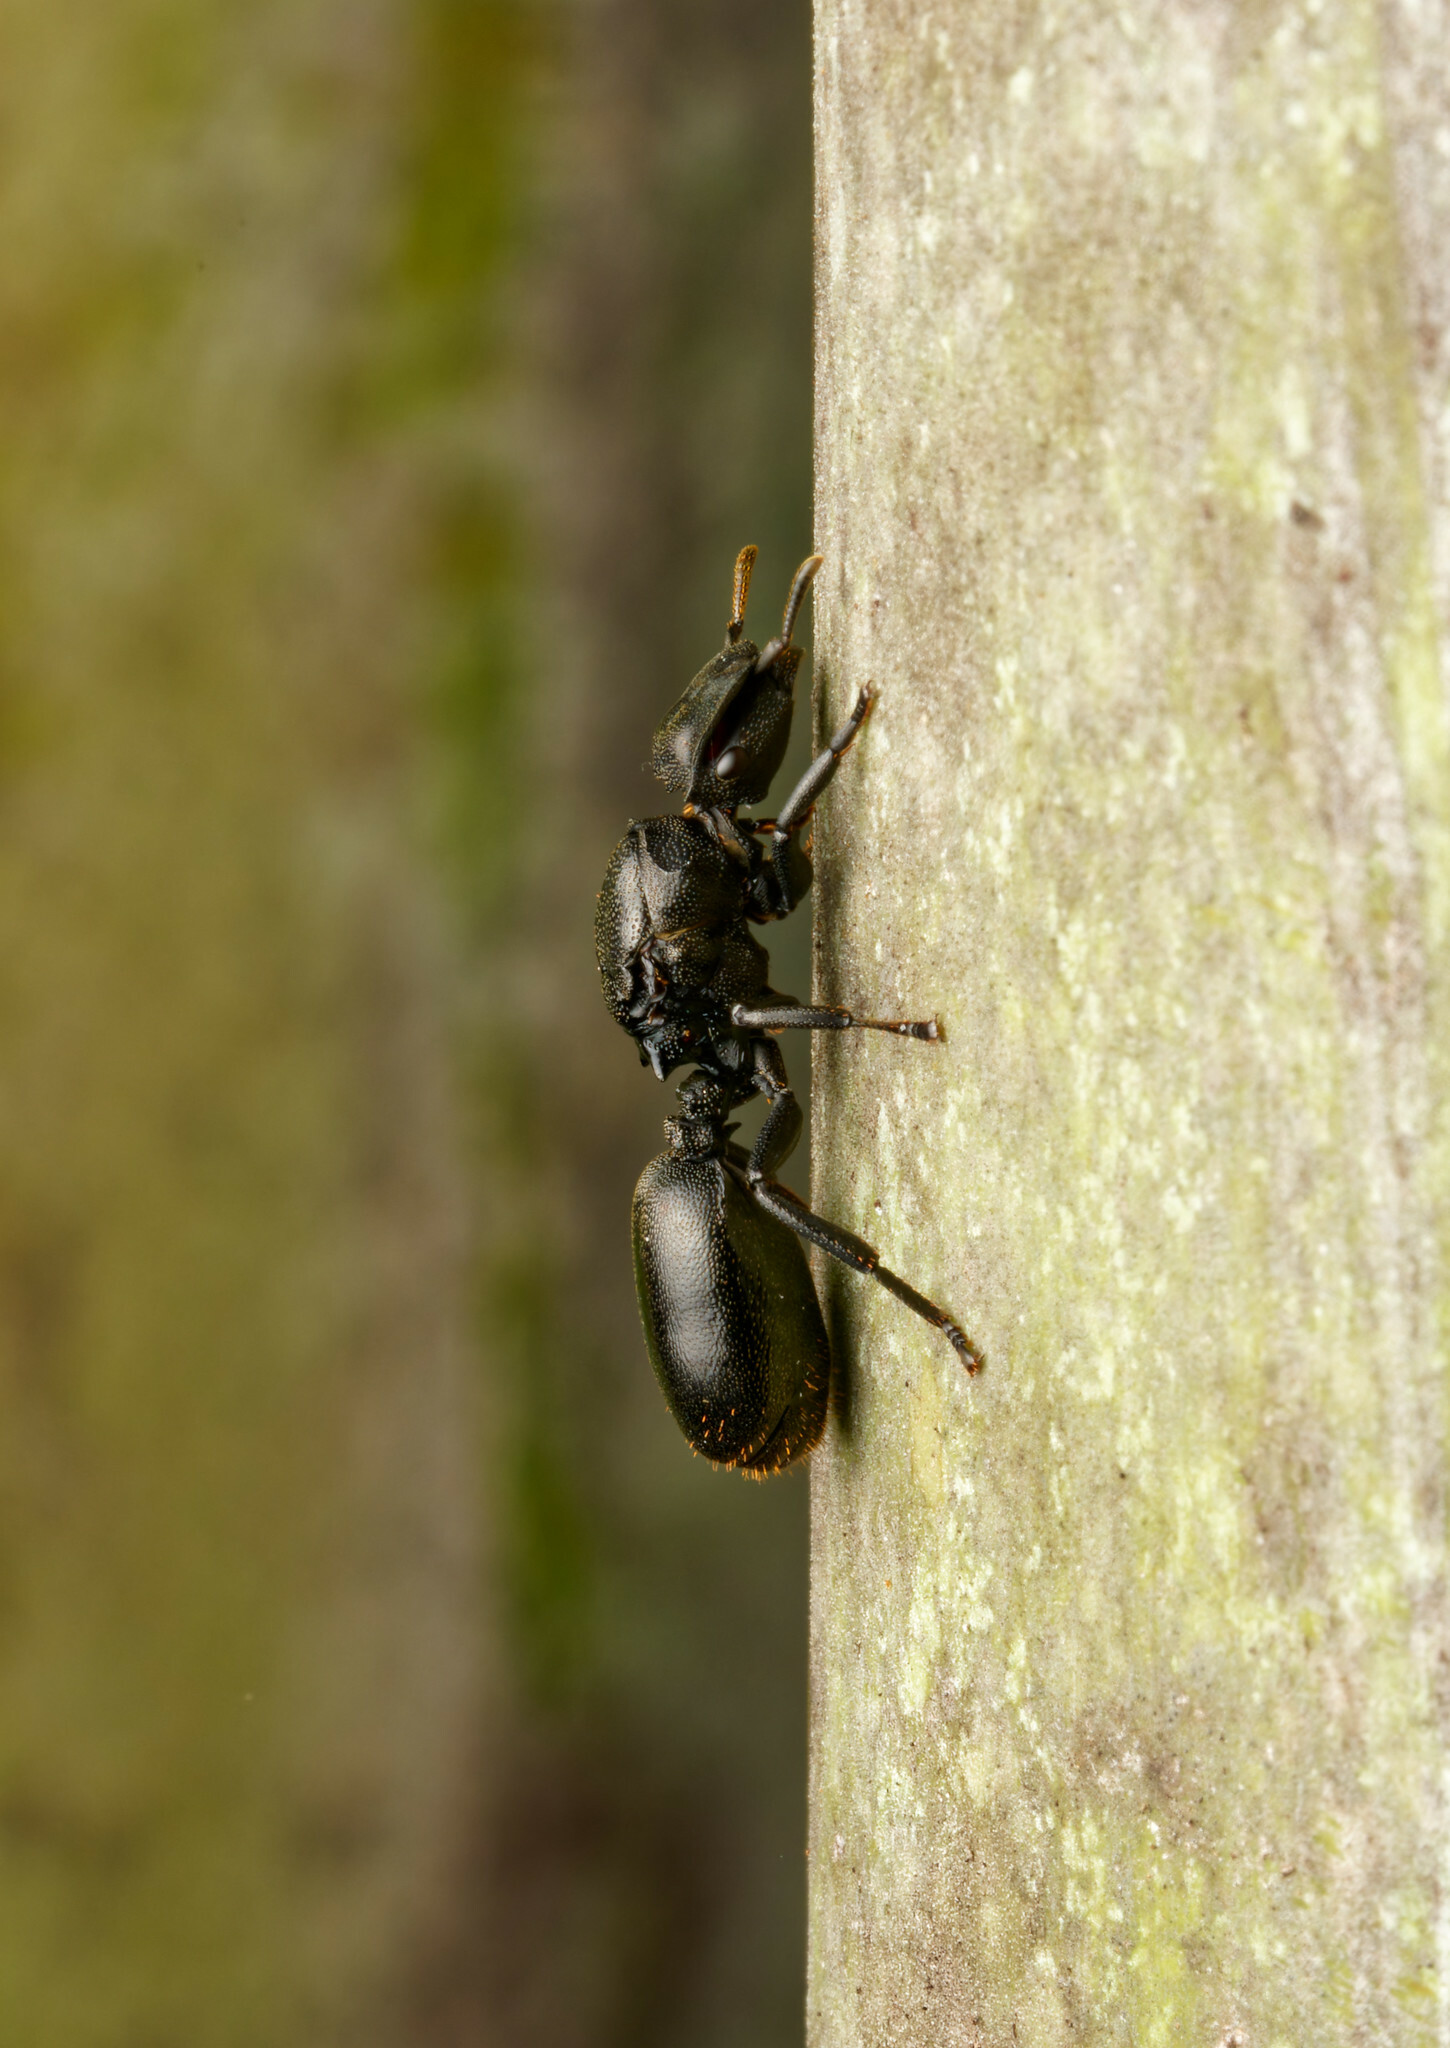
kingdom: Animalia
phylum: Arthropoda
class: Insecta
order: Hymenoptera
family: Formicidae
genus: Cephalotes
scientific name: Cephalotes atratus
